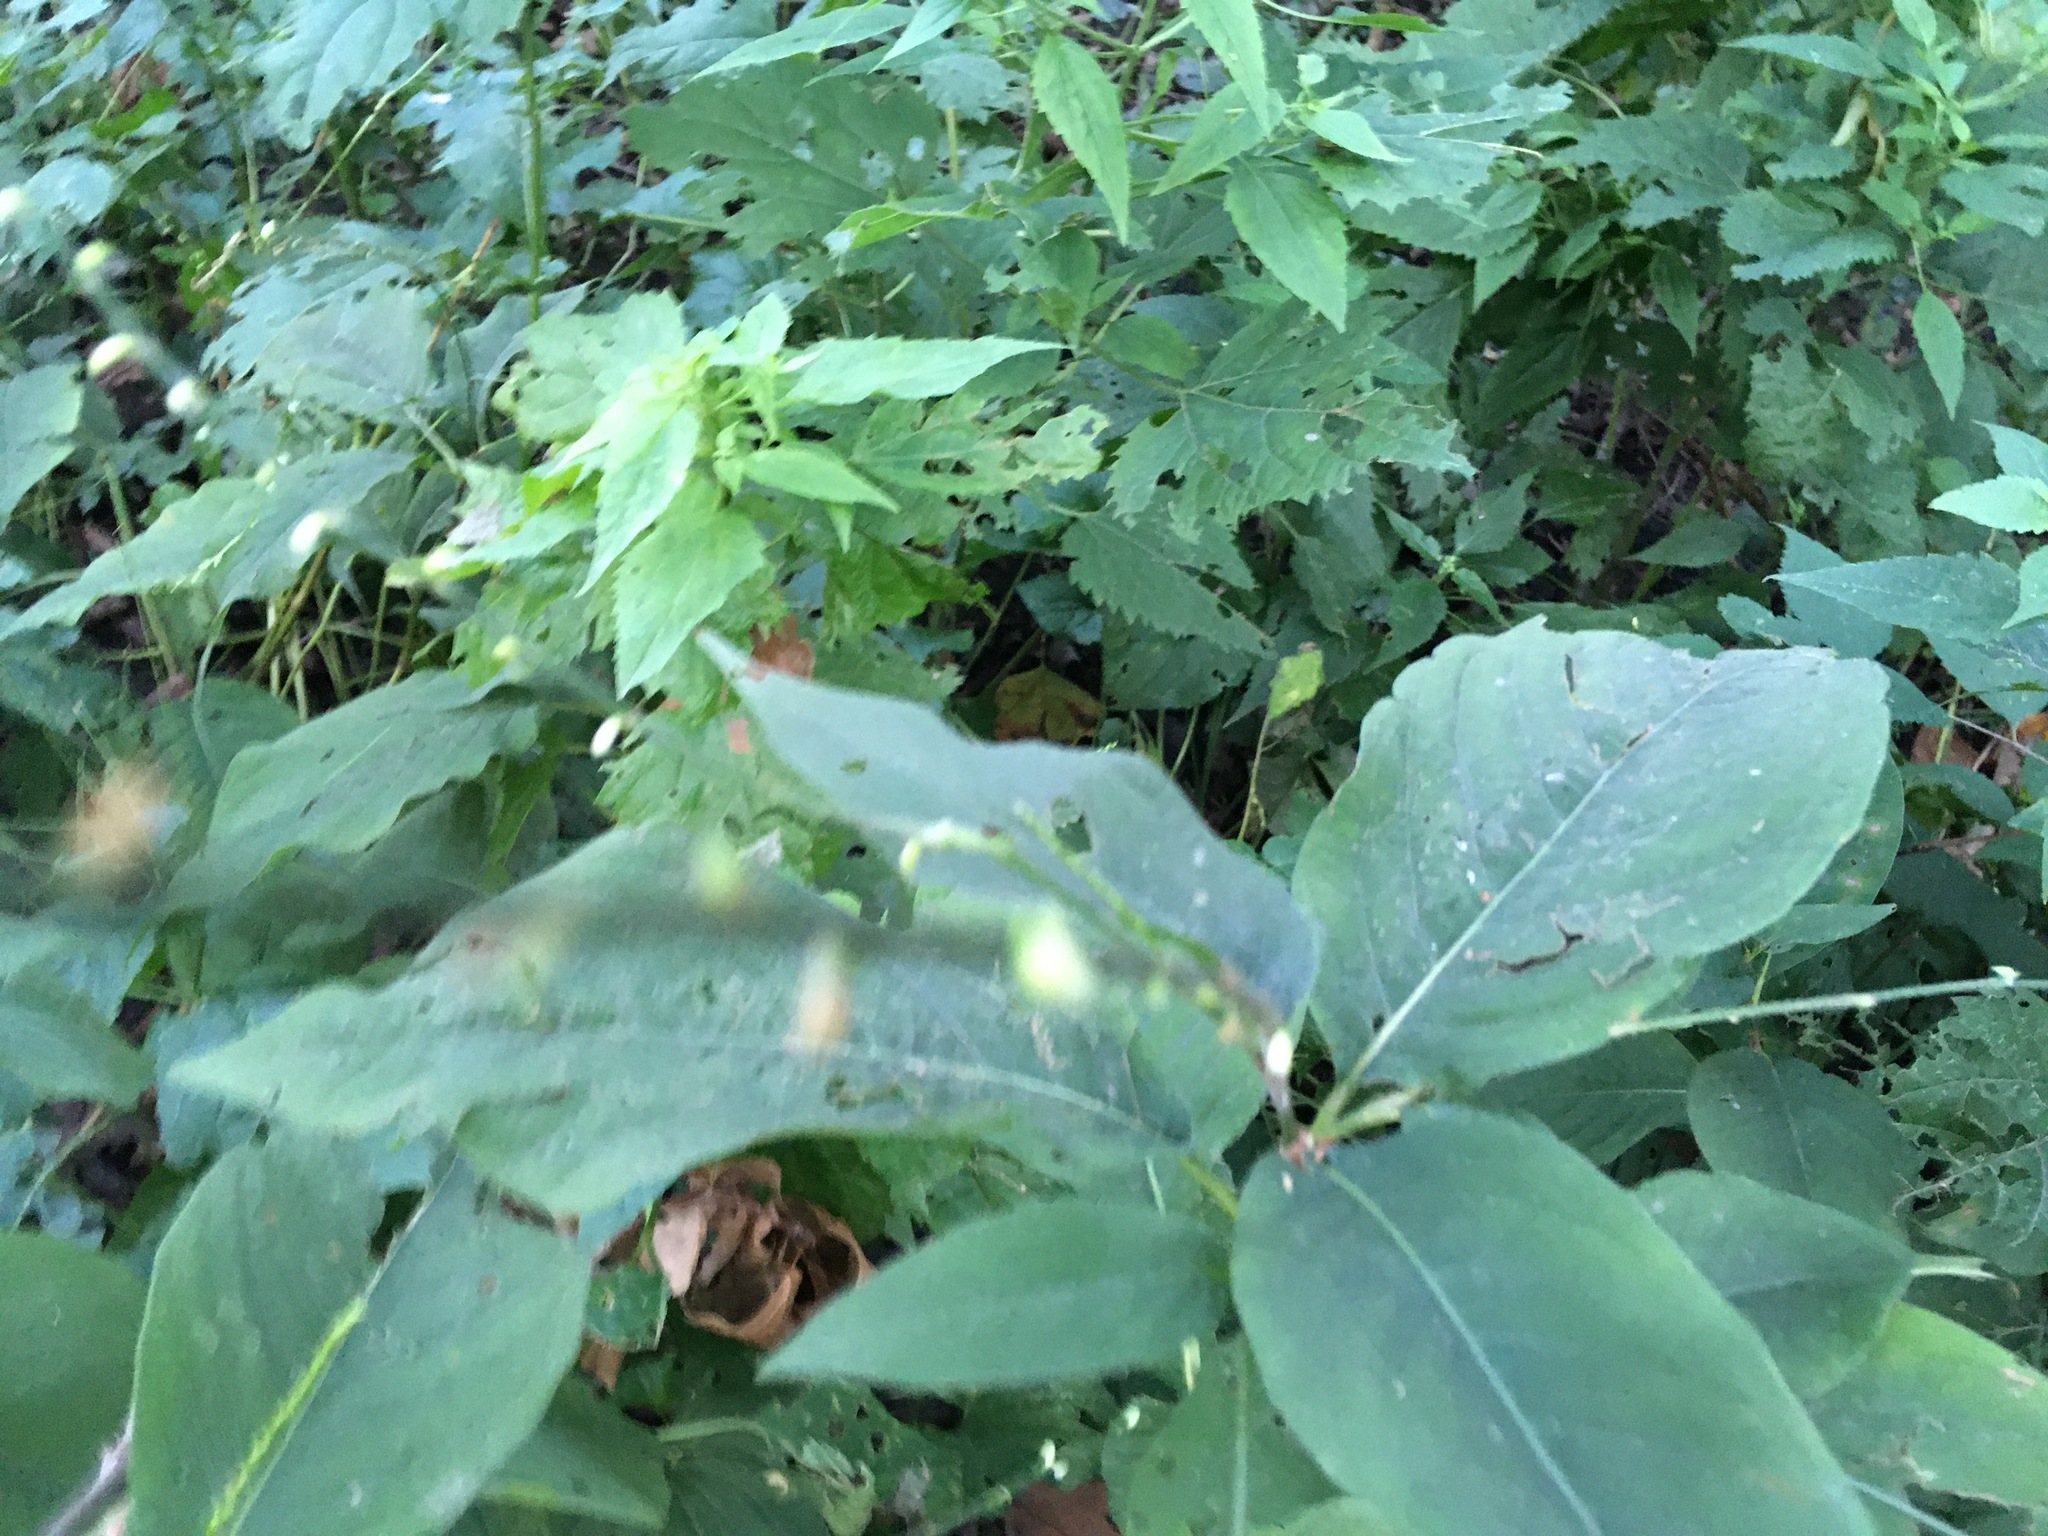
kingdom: Plantae
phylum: Tracheophyta
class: Magnoliopsida
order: Caryophyllales
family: Polygonaceae
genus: Persicaria
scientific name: Persicaria virginiana
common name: Jumpseed
